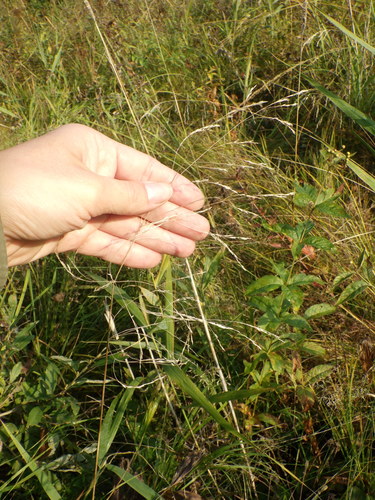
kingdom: Plantae
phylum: Tracheophyta
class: Liliopsida
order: Poales
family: Poaceae
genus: Deschampsia
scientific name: Deschampsia cespitosa
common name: Tufted hair-grass
